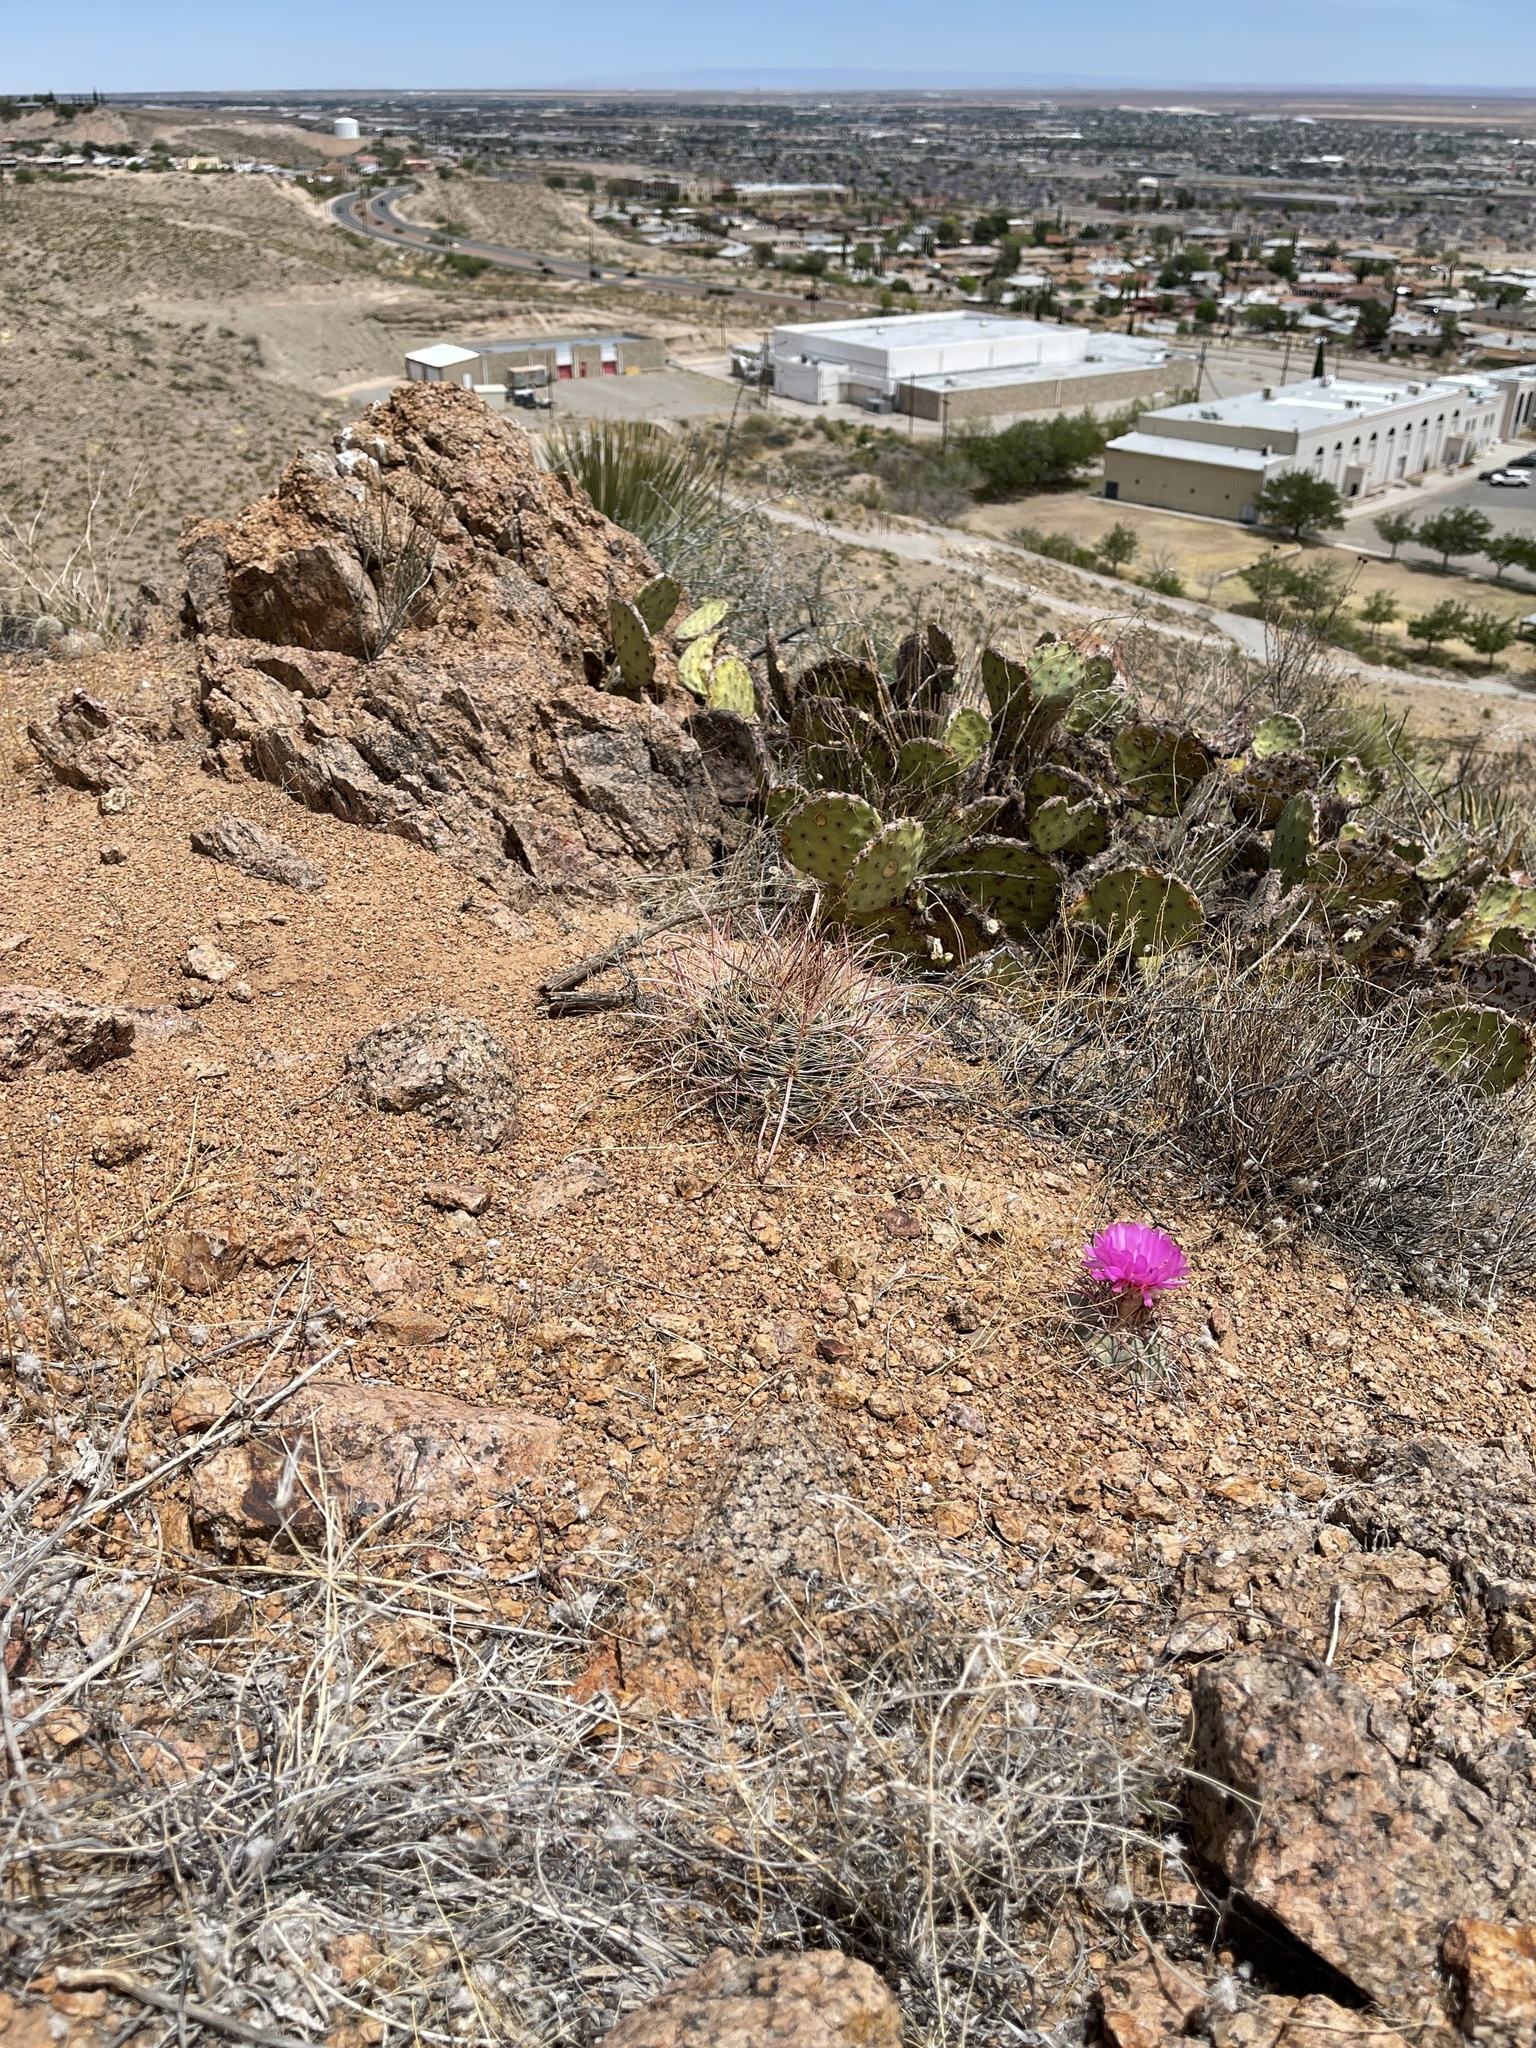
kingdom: Plantae
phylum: Tracheophyta
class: Magnoliopsida
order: Caryophyllales
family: Cactaceae
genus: Ferocactus
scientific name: Ferocactus wislizeni
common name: Candy barrel cactus
